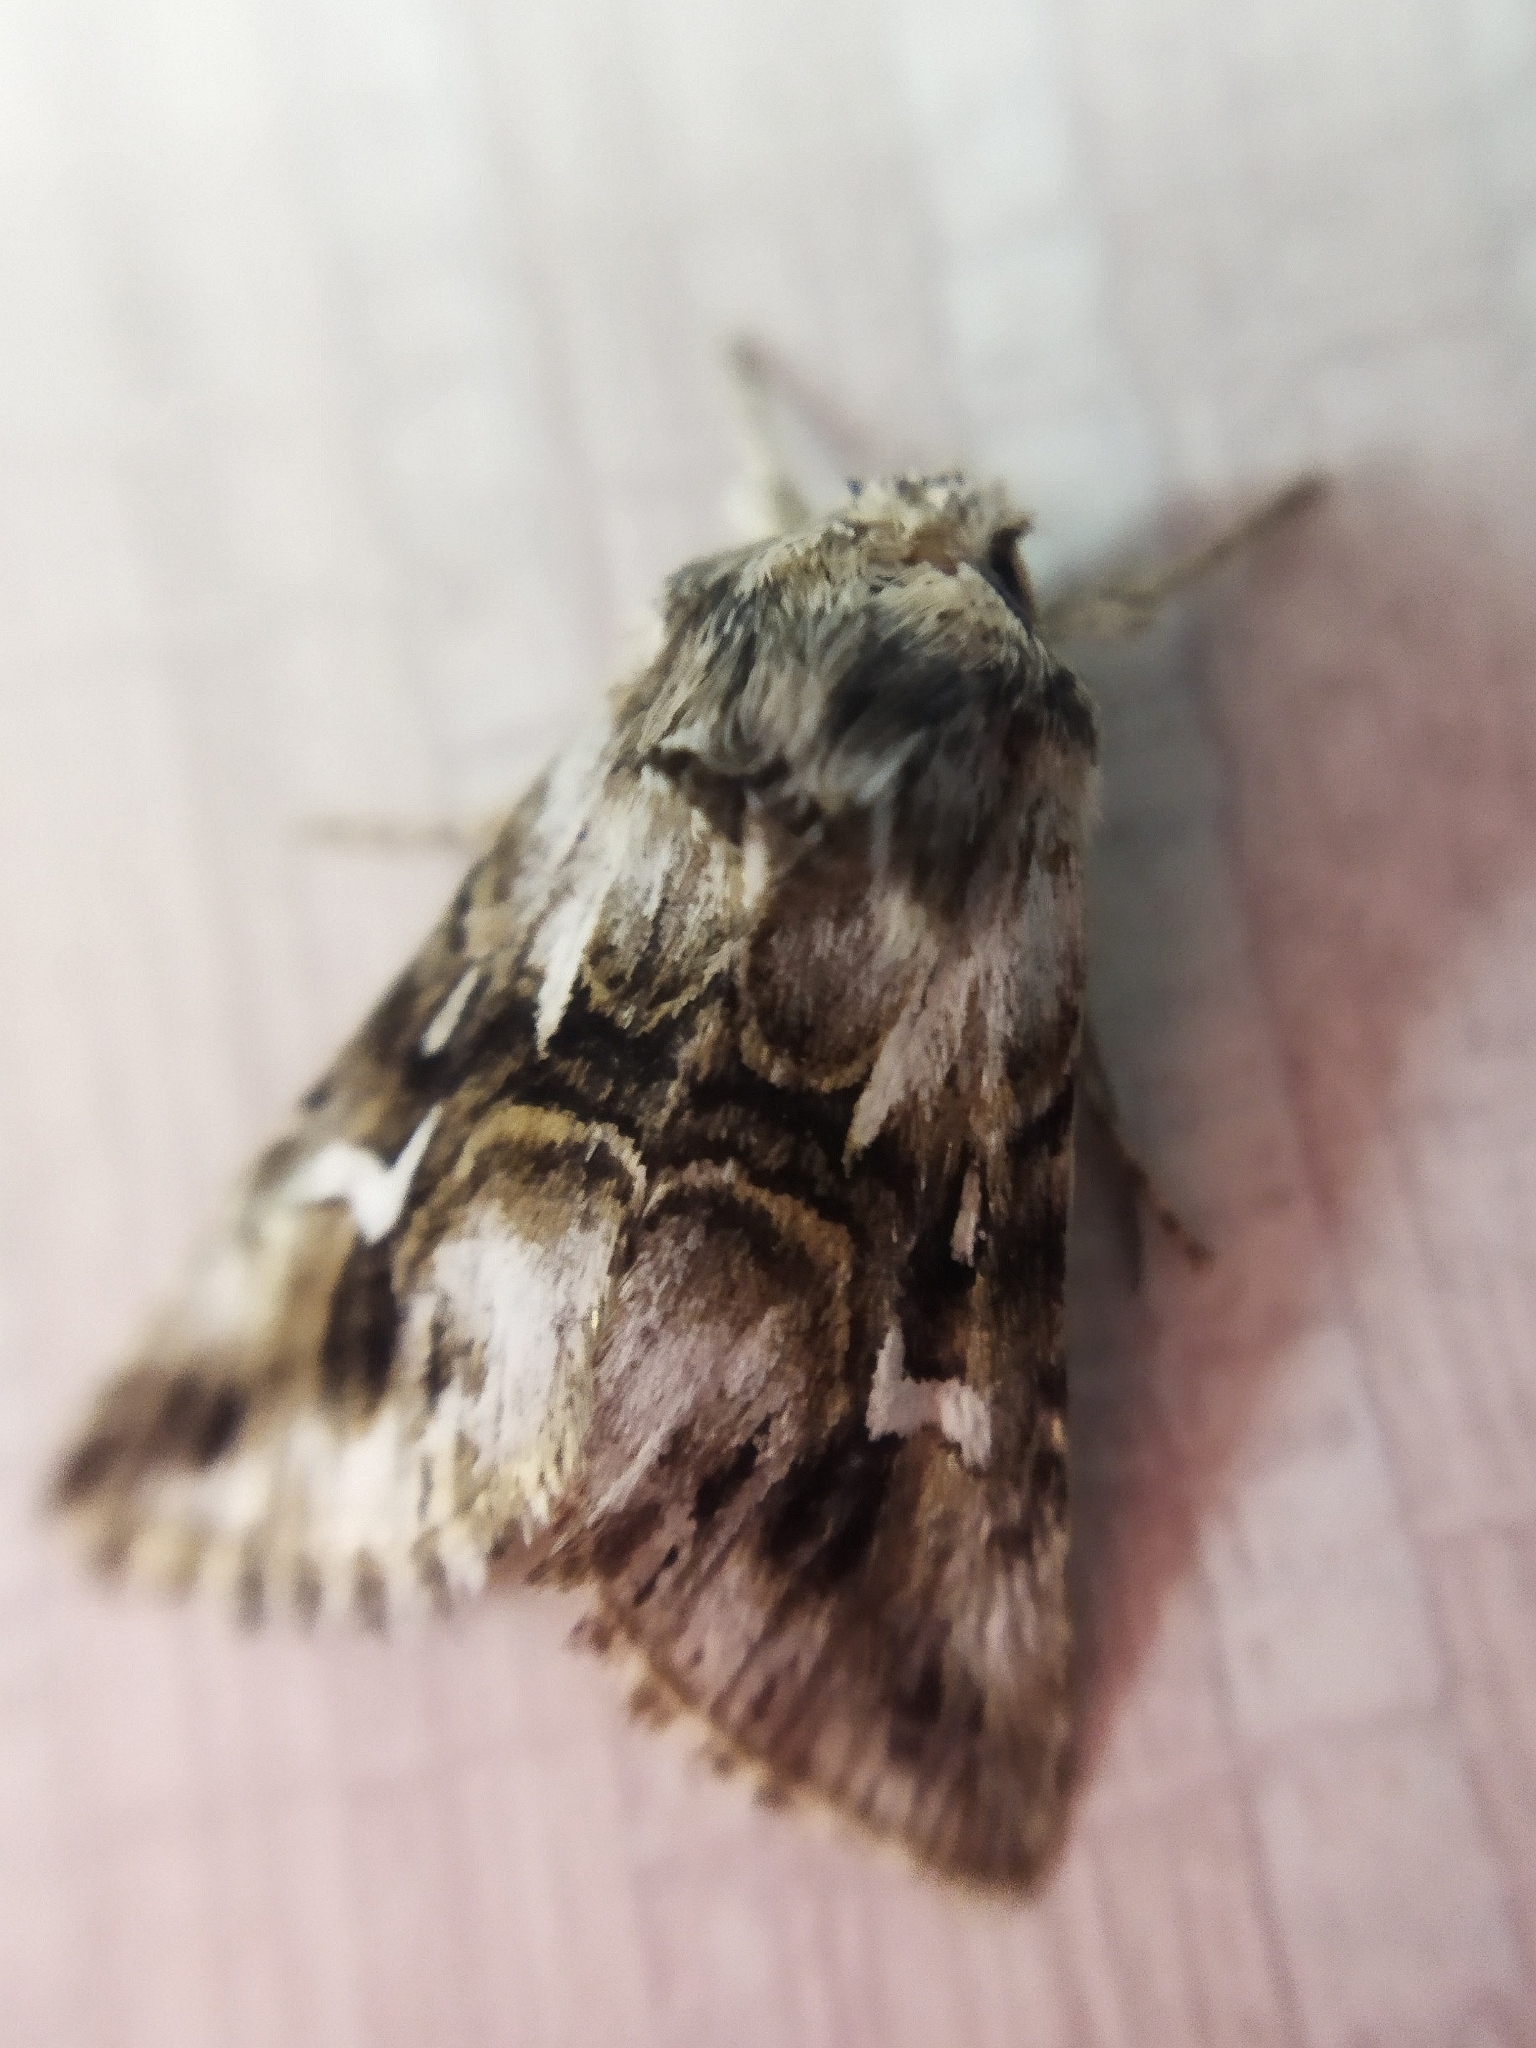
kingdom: Animalia
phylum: Arthropoda
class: Insecta
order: Lepidoptera
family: Noctuidae
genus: Calophasia
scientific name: Calophasia lunula
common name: Toadflax brocade
